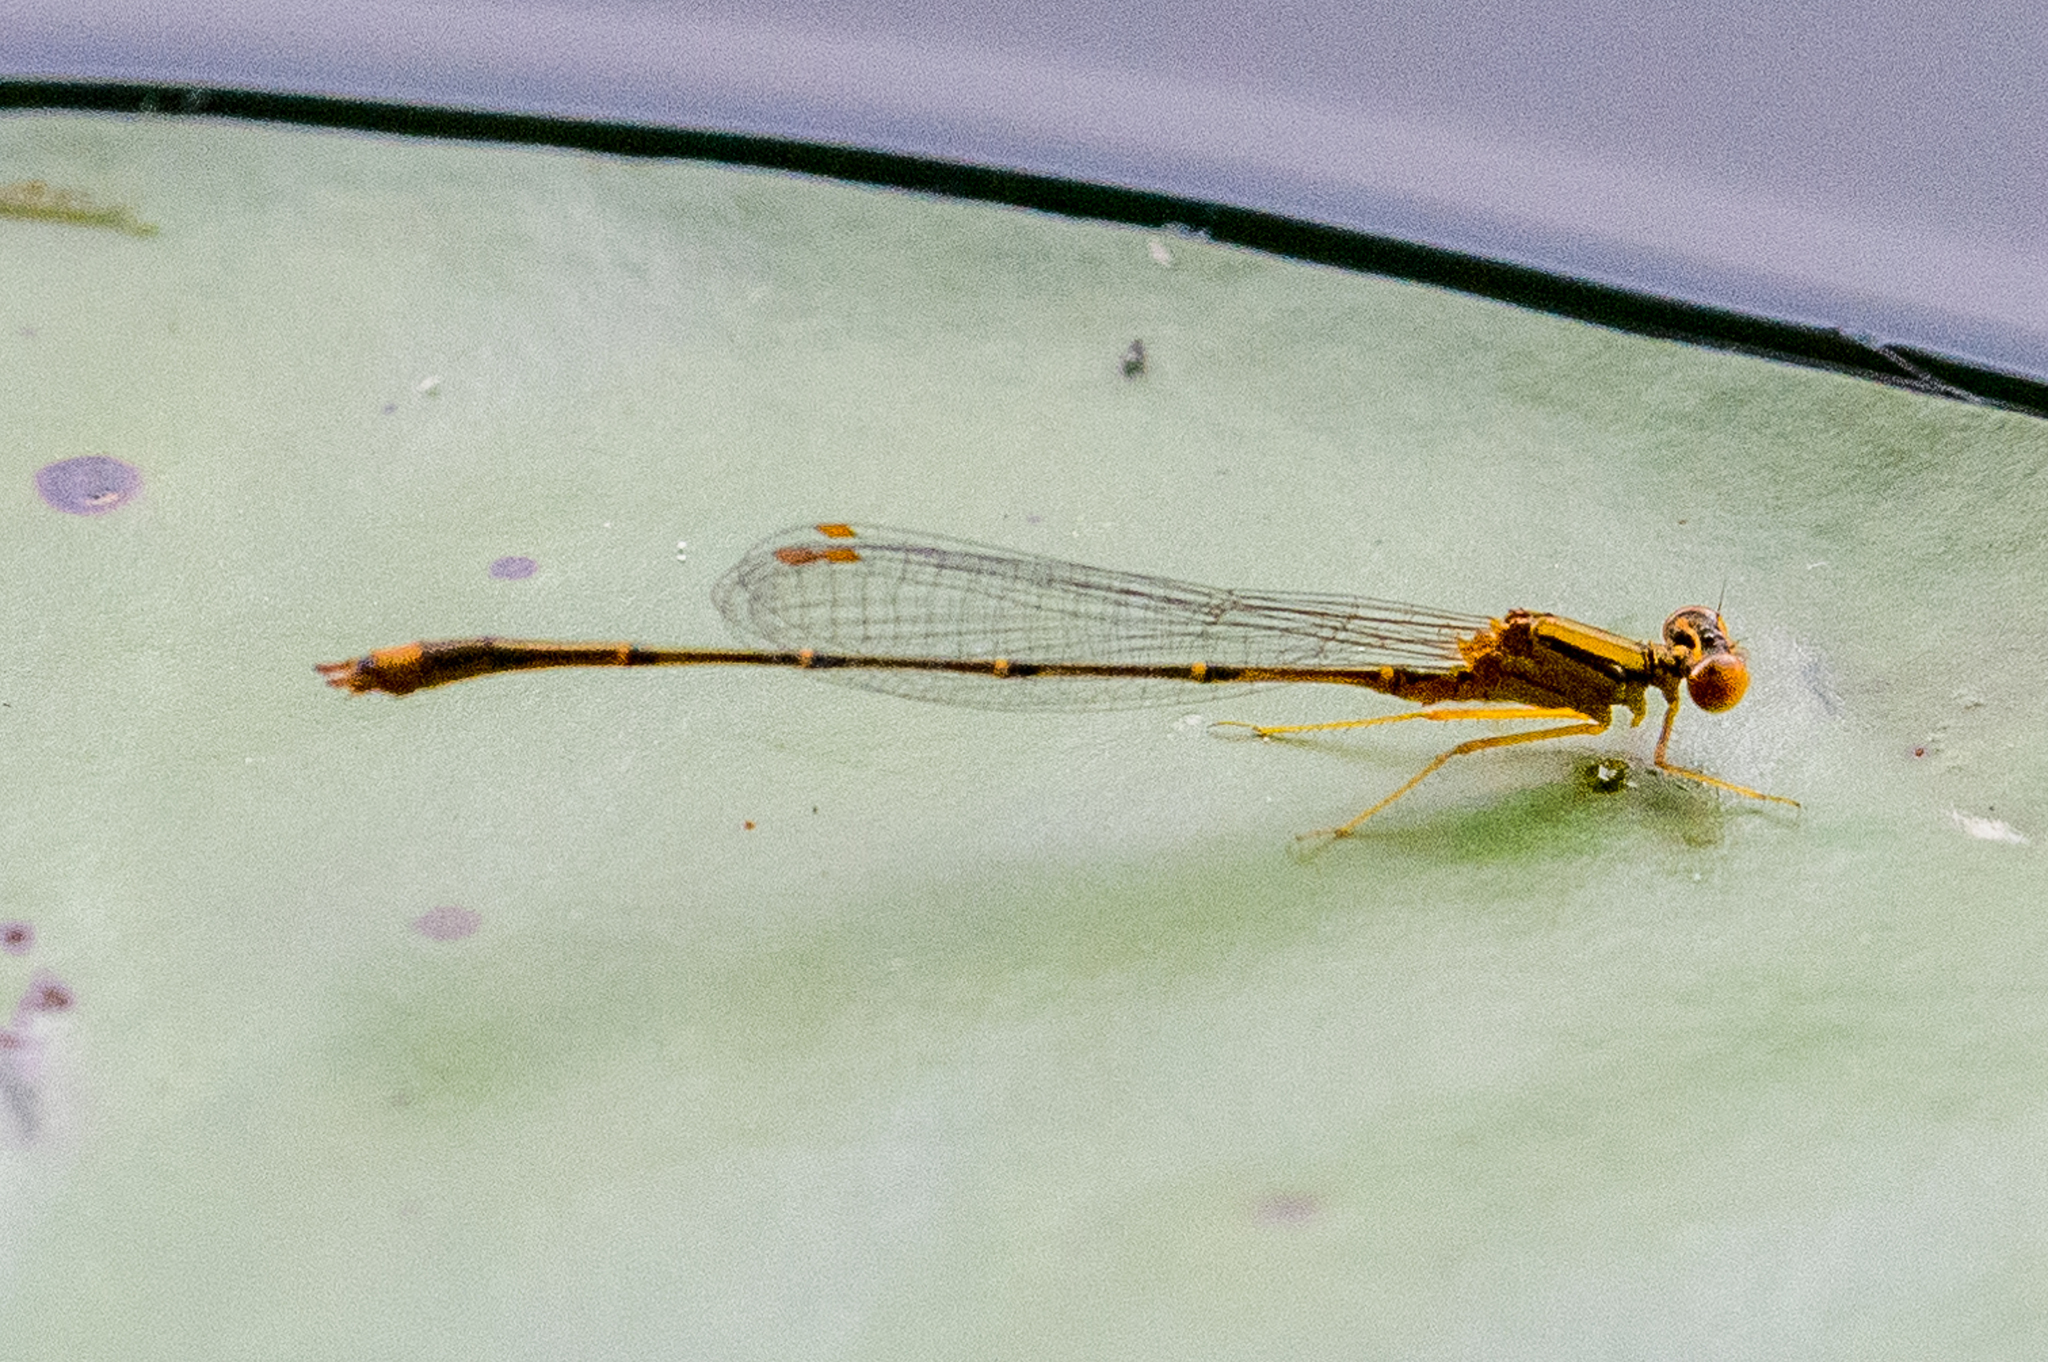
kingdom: Animalia
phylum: Arthropoda
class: Insecta
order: Odonata
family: Coenagrionidae
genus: Enallagma
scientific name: Enallagma signatum
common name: Orange bluet
